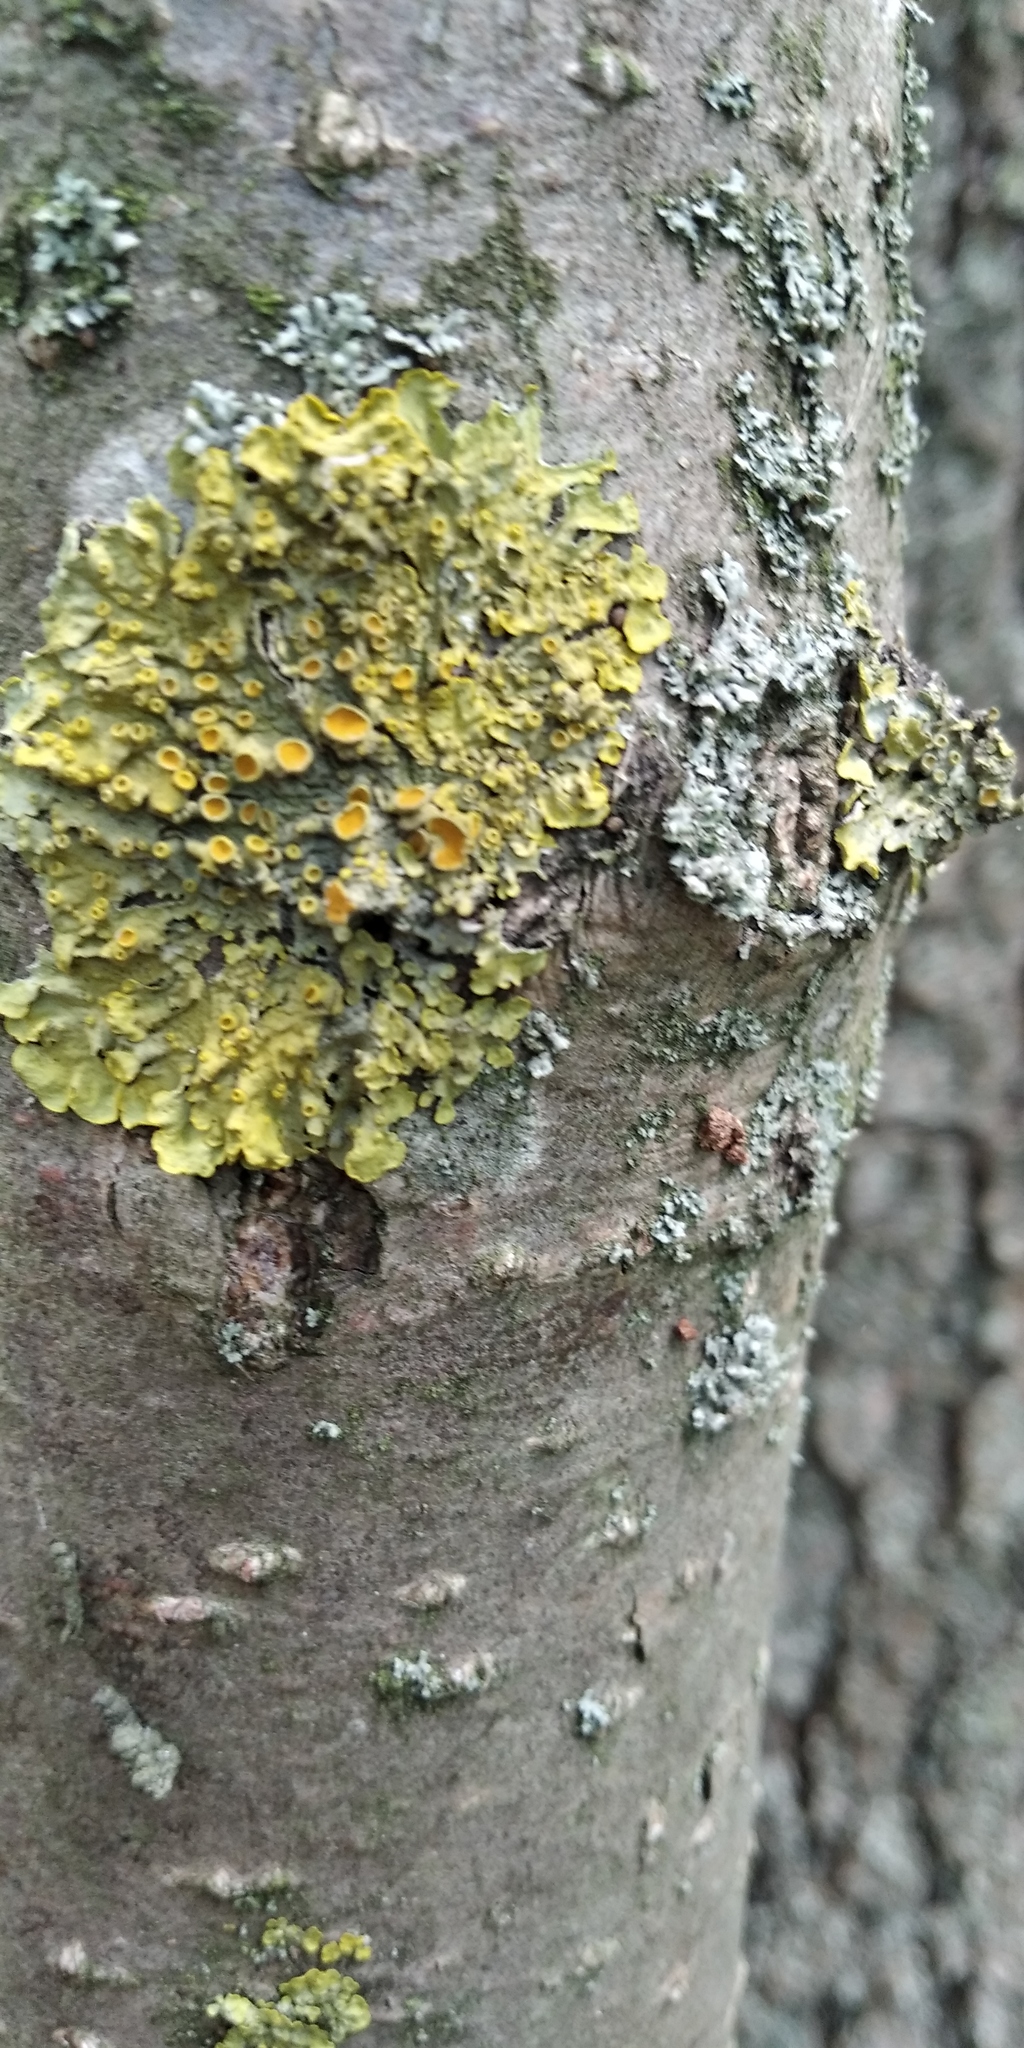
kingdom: Fungi
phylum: Ascomycota
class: Lecanoromycetes
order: Teloschistales
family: Teloschistaceae
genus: Xanthoria
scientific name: Xanthoria parietina
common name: Common orange lichen
